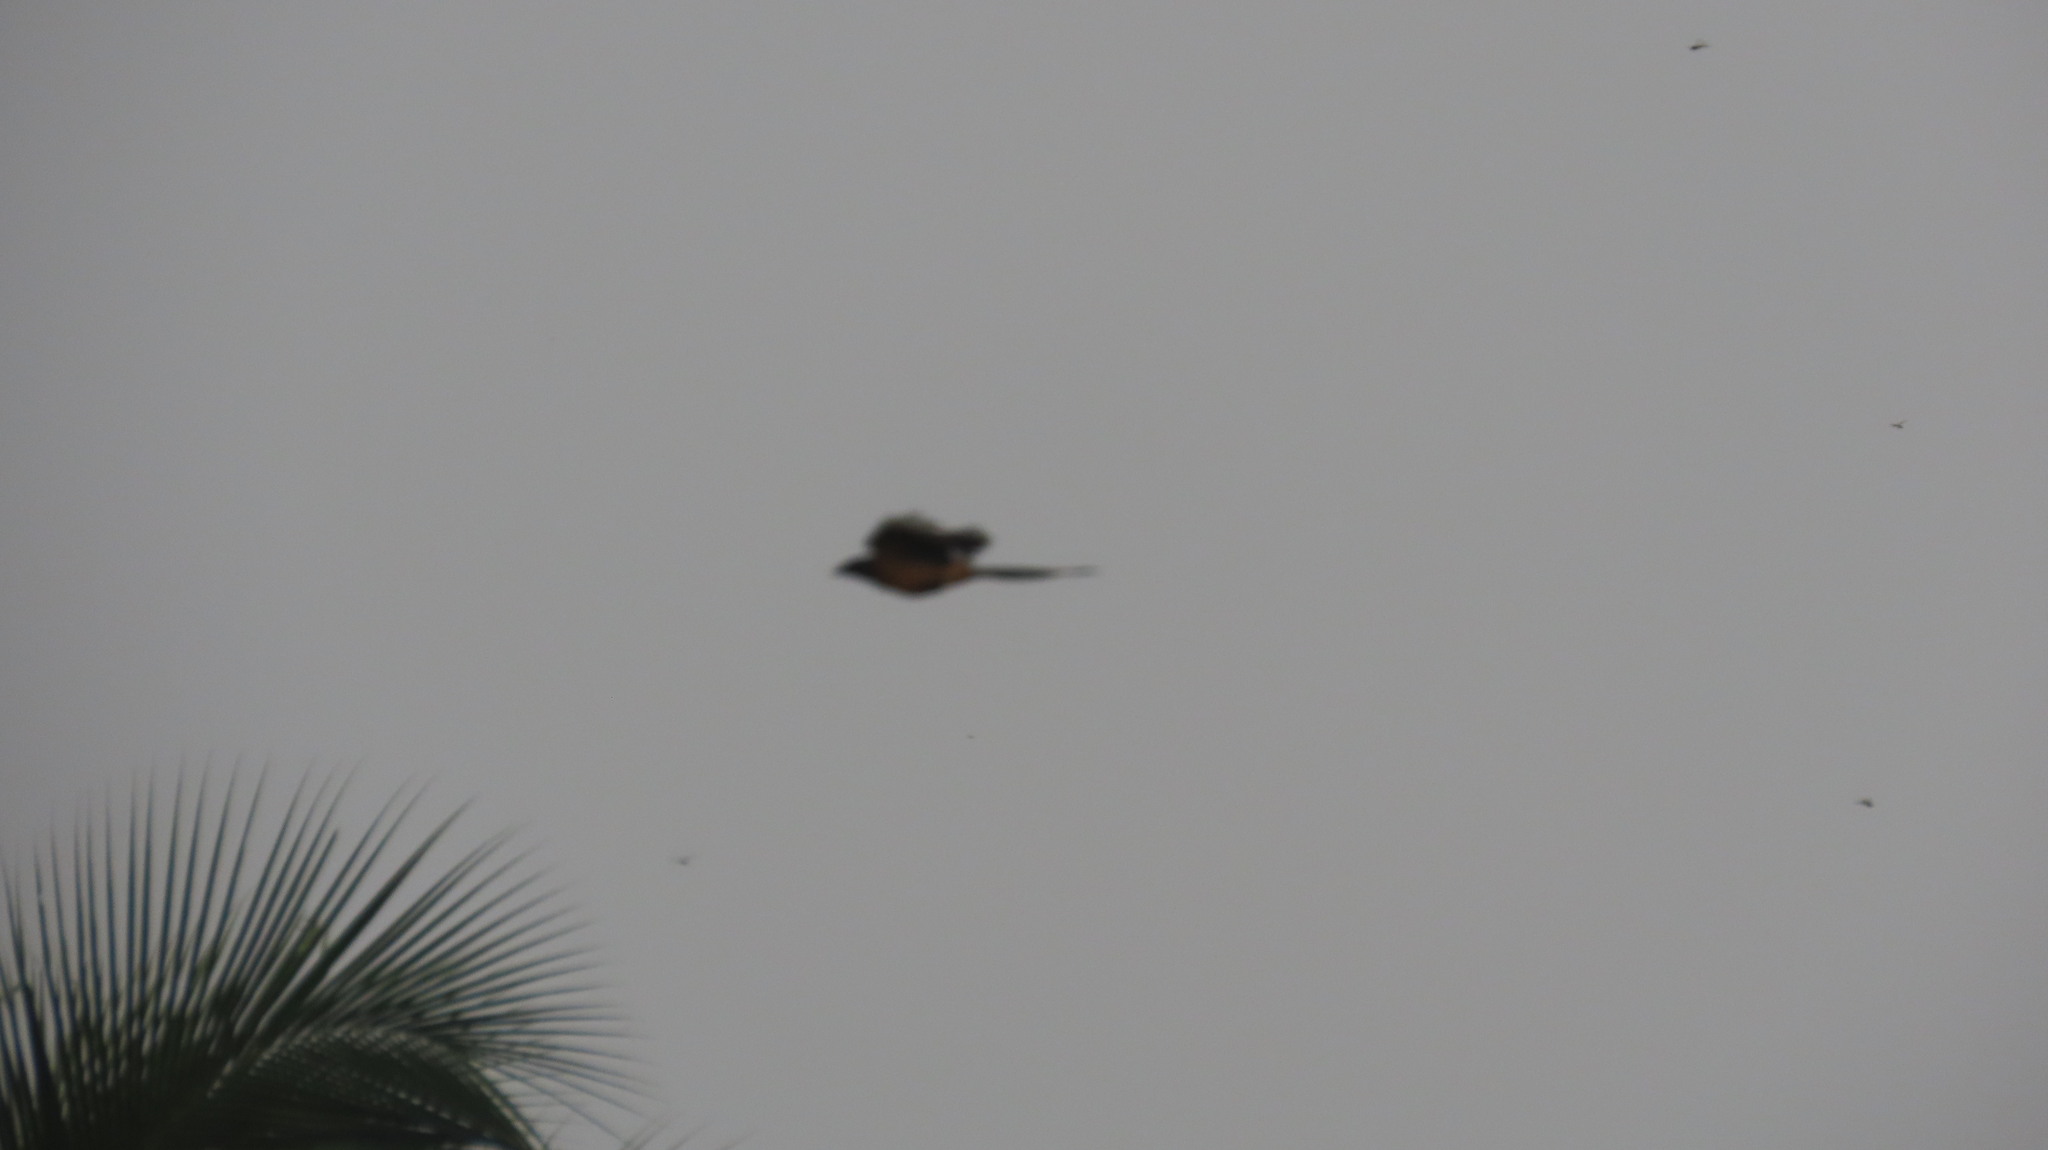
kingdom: Animalia
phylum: Chordata
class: Aves
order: Passeriformes
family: Corvidae
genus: Dendrocitta
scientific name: Dendrocitta vagabunda
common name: Rufous treepie
